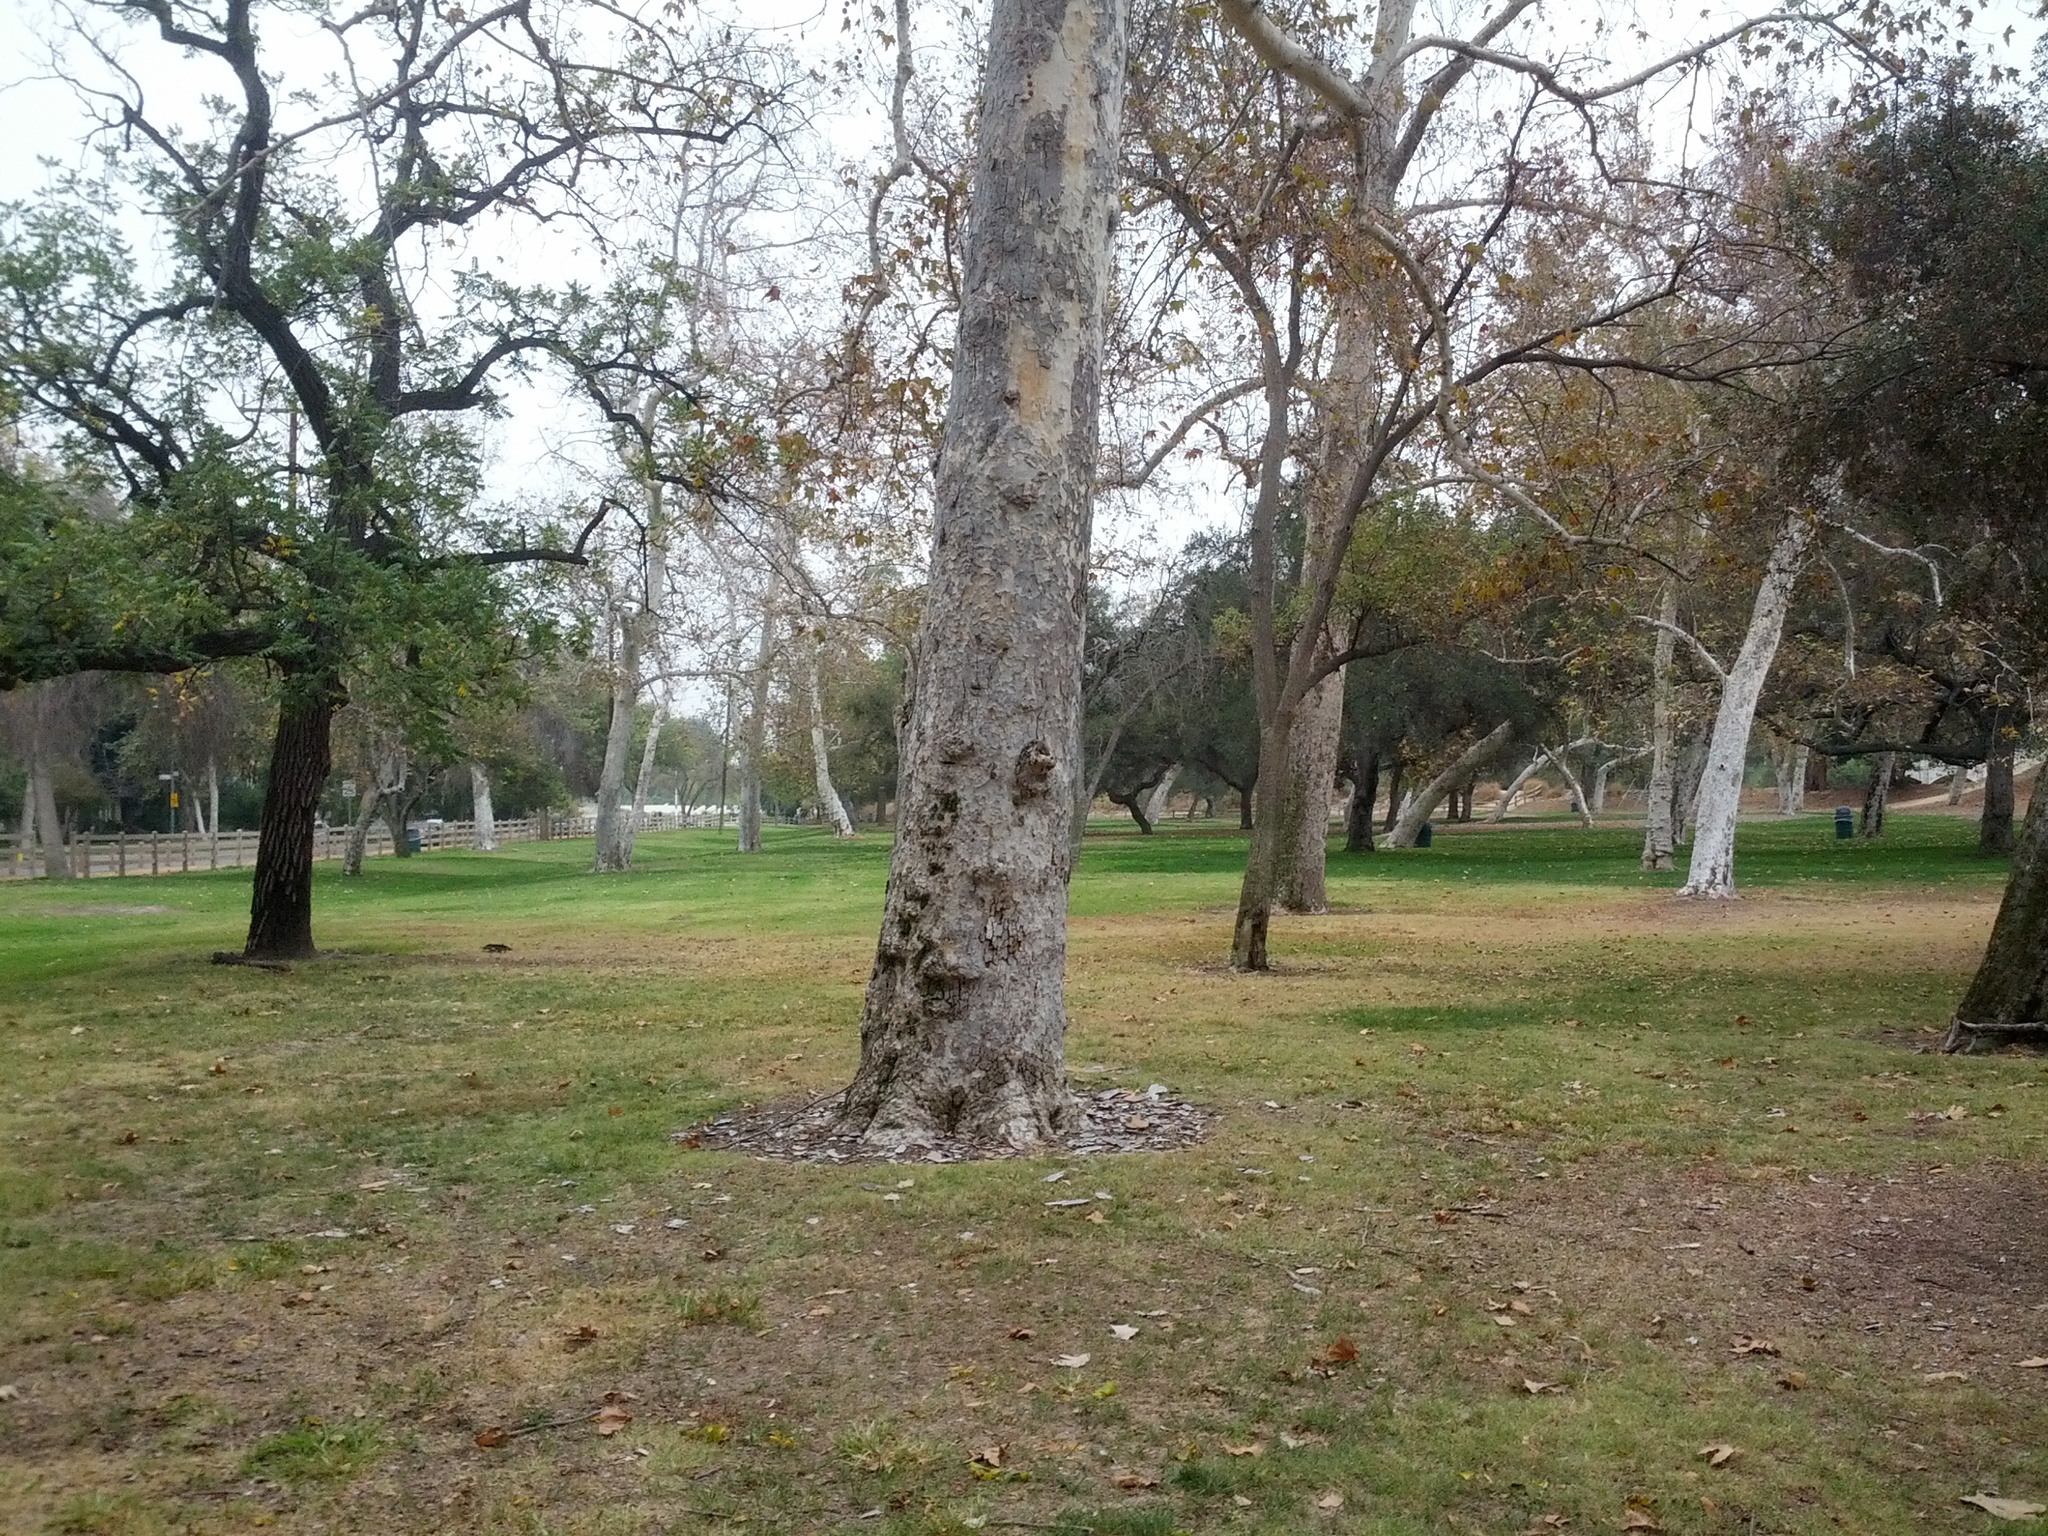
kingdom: Plantae
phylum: Tracheophyta
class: Magnoliopsida
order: Proteales
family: Platanaceae
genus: Platanus
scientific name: Platanus racemosa
